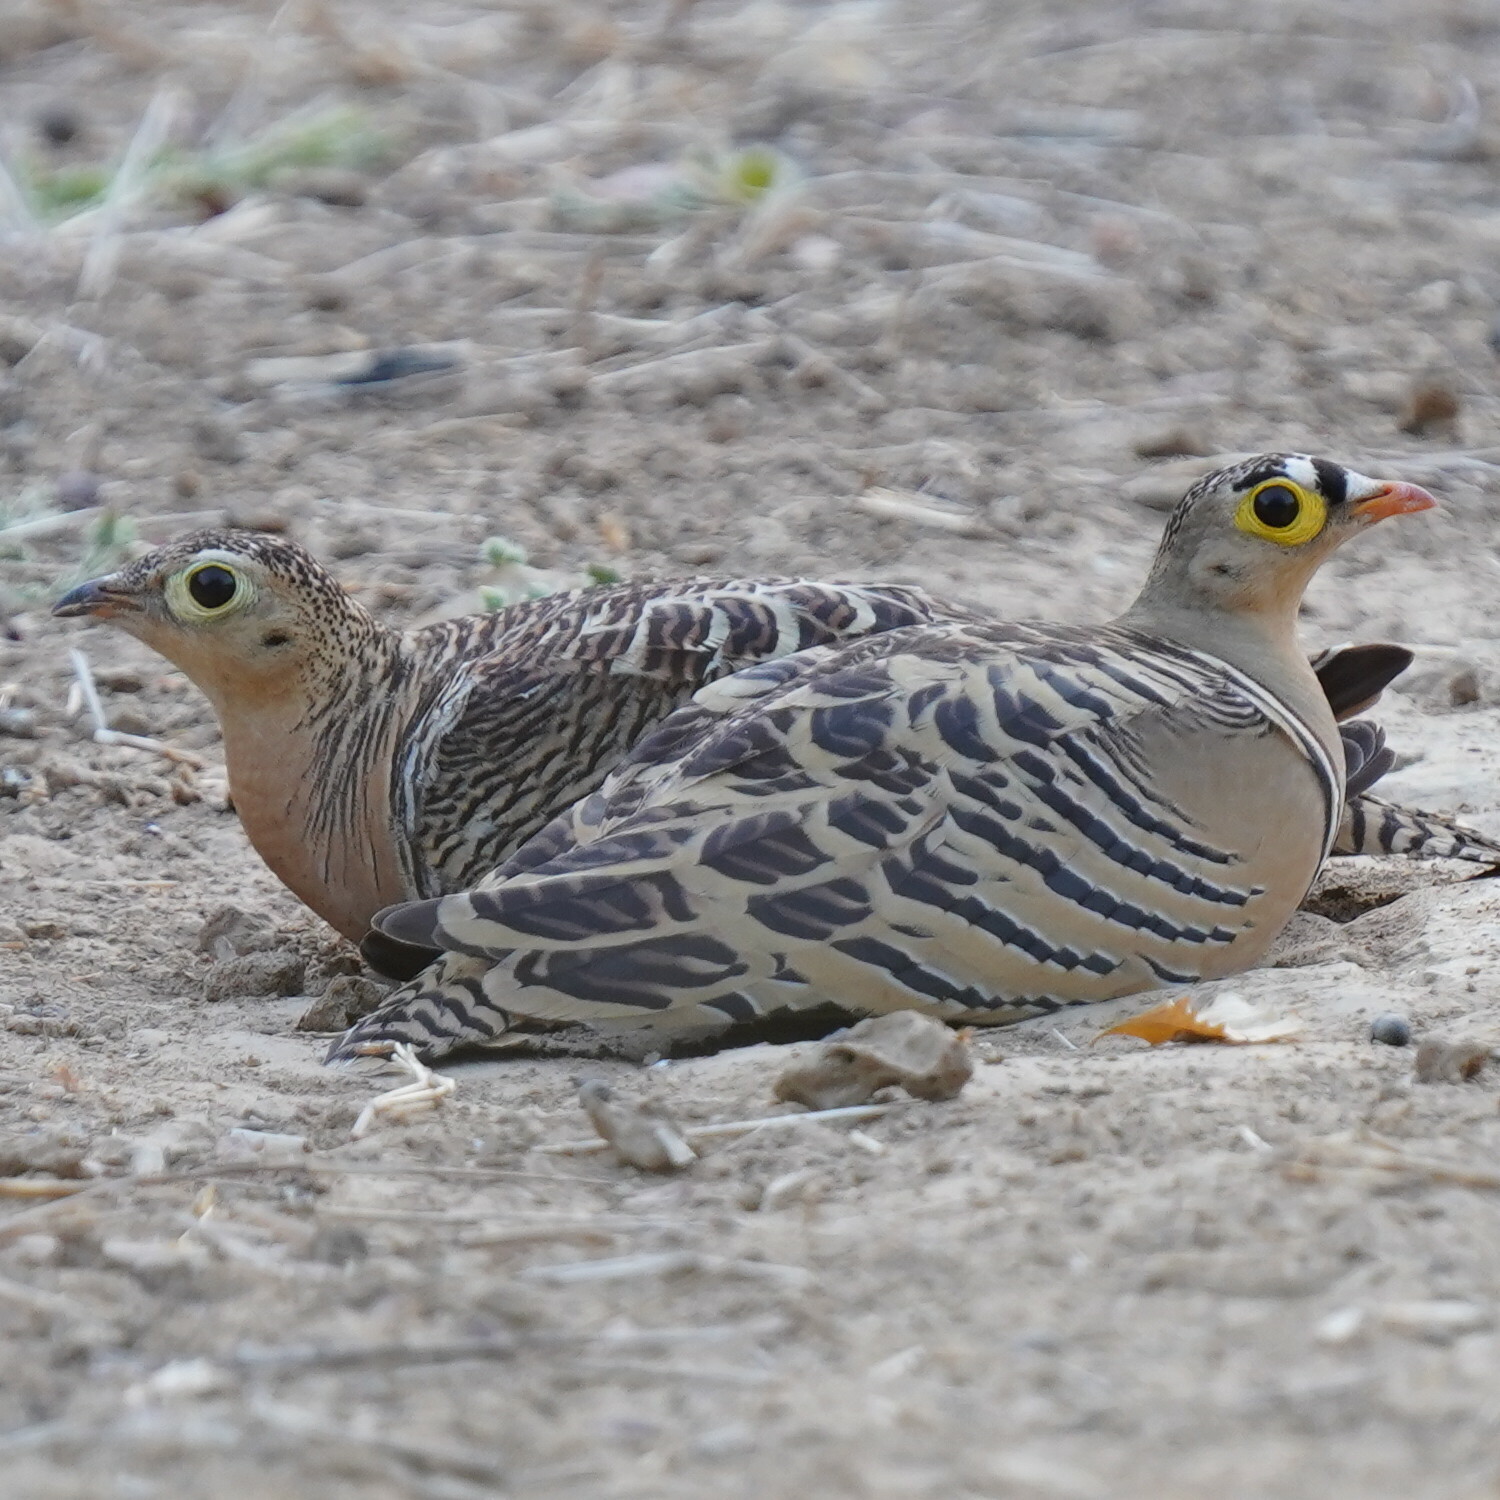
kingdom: Animalia
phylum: Chordata
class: Aves
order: Pteroclidiformes
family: Pteroclididae
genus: Pterocles
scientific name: Pterocles quadricinctus
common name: Four-banded sandgrouse
